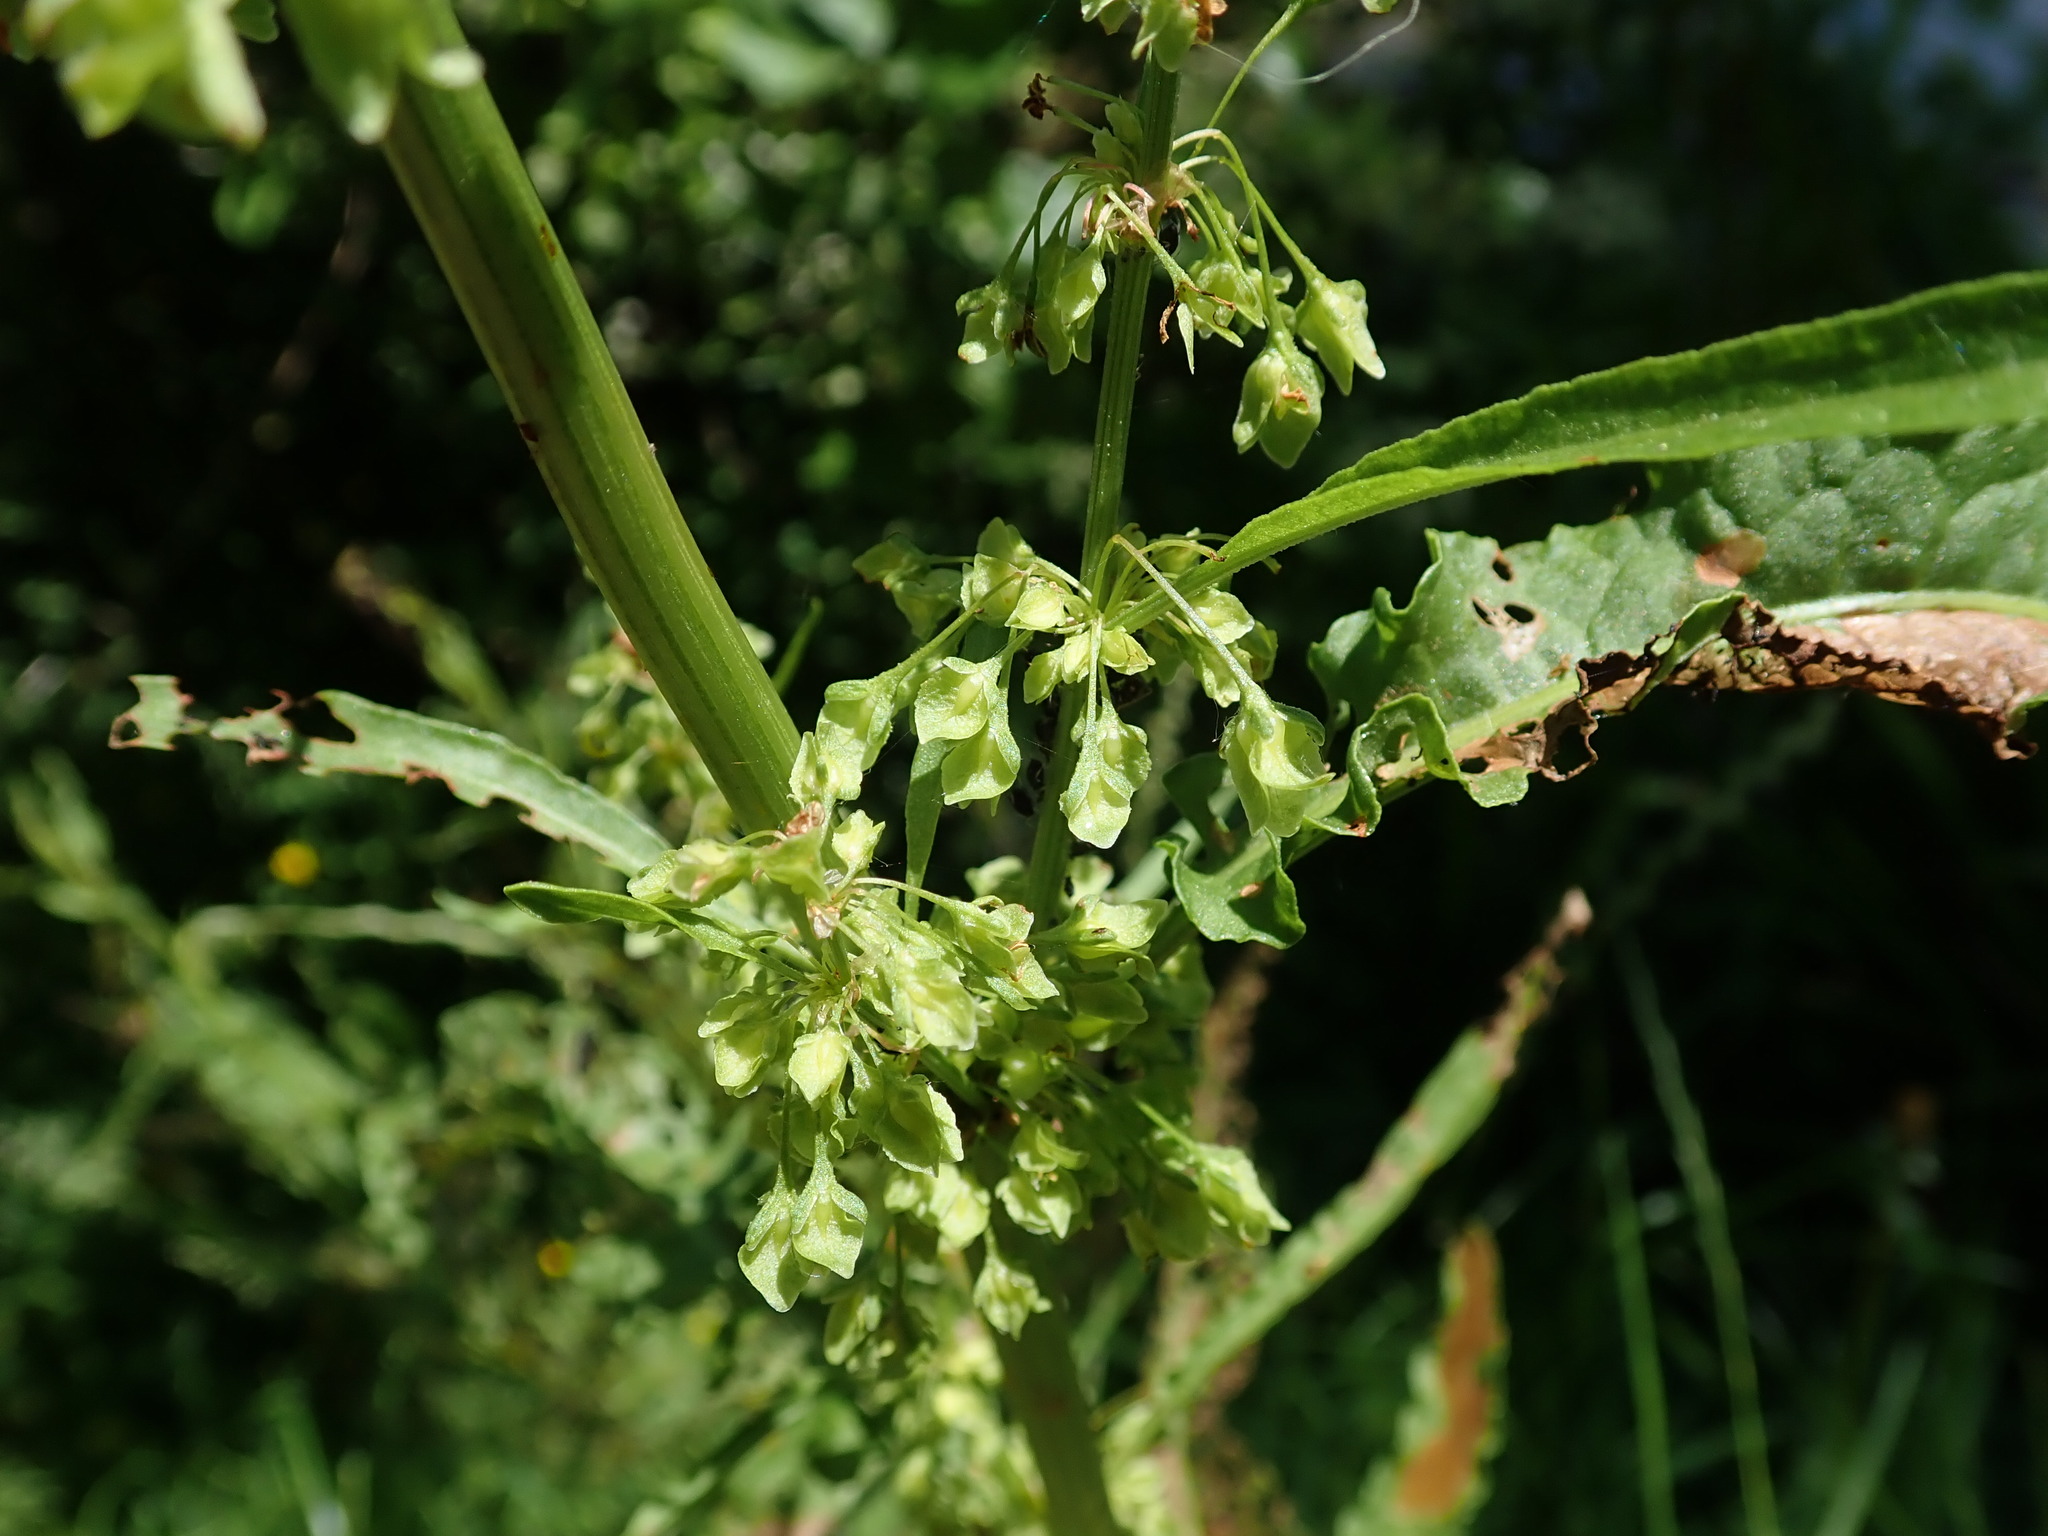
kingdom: Plantae
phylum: Tracheophyta
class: Magnoliopsida
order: Caryophyllales
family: Polygonaceae
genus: Rumex
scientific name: Rumex crispus
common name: Curled dock
